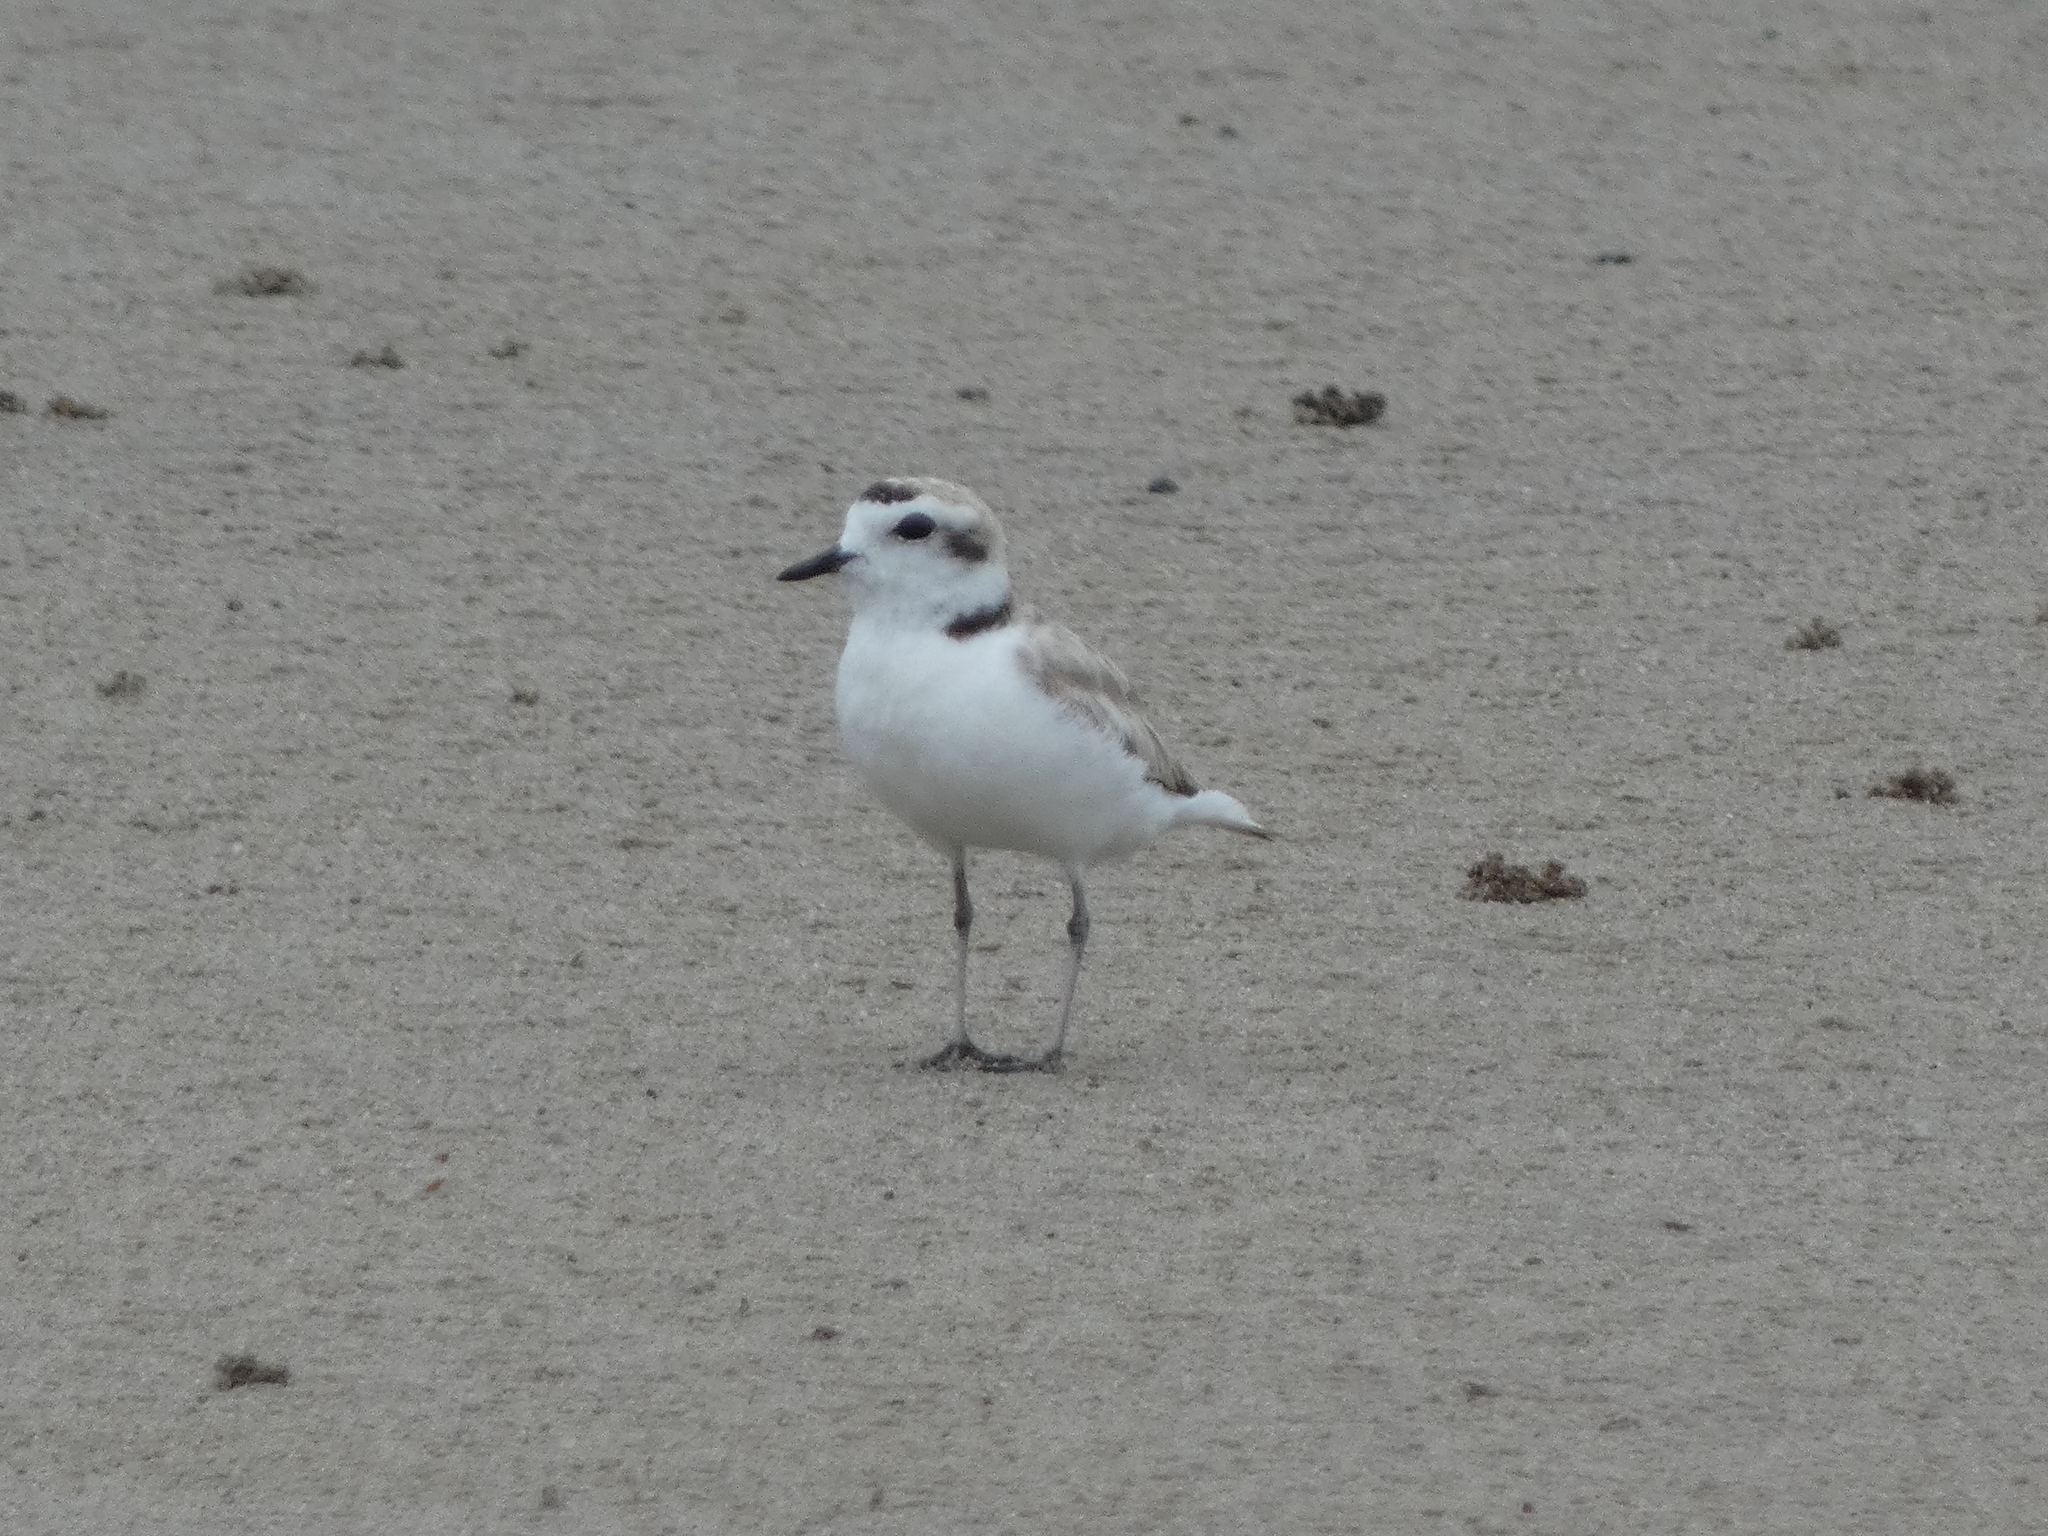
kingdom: Animalia
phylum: Chordata
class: Aves
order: Charadriiformes
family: Charadriidae
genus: Anarhynchus
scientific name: Anarhynchus
